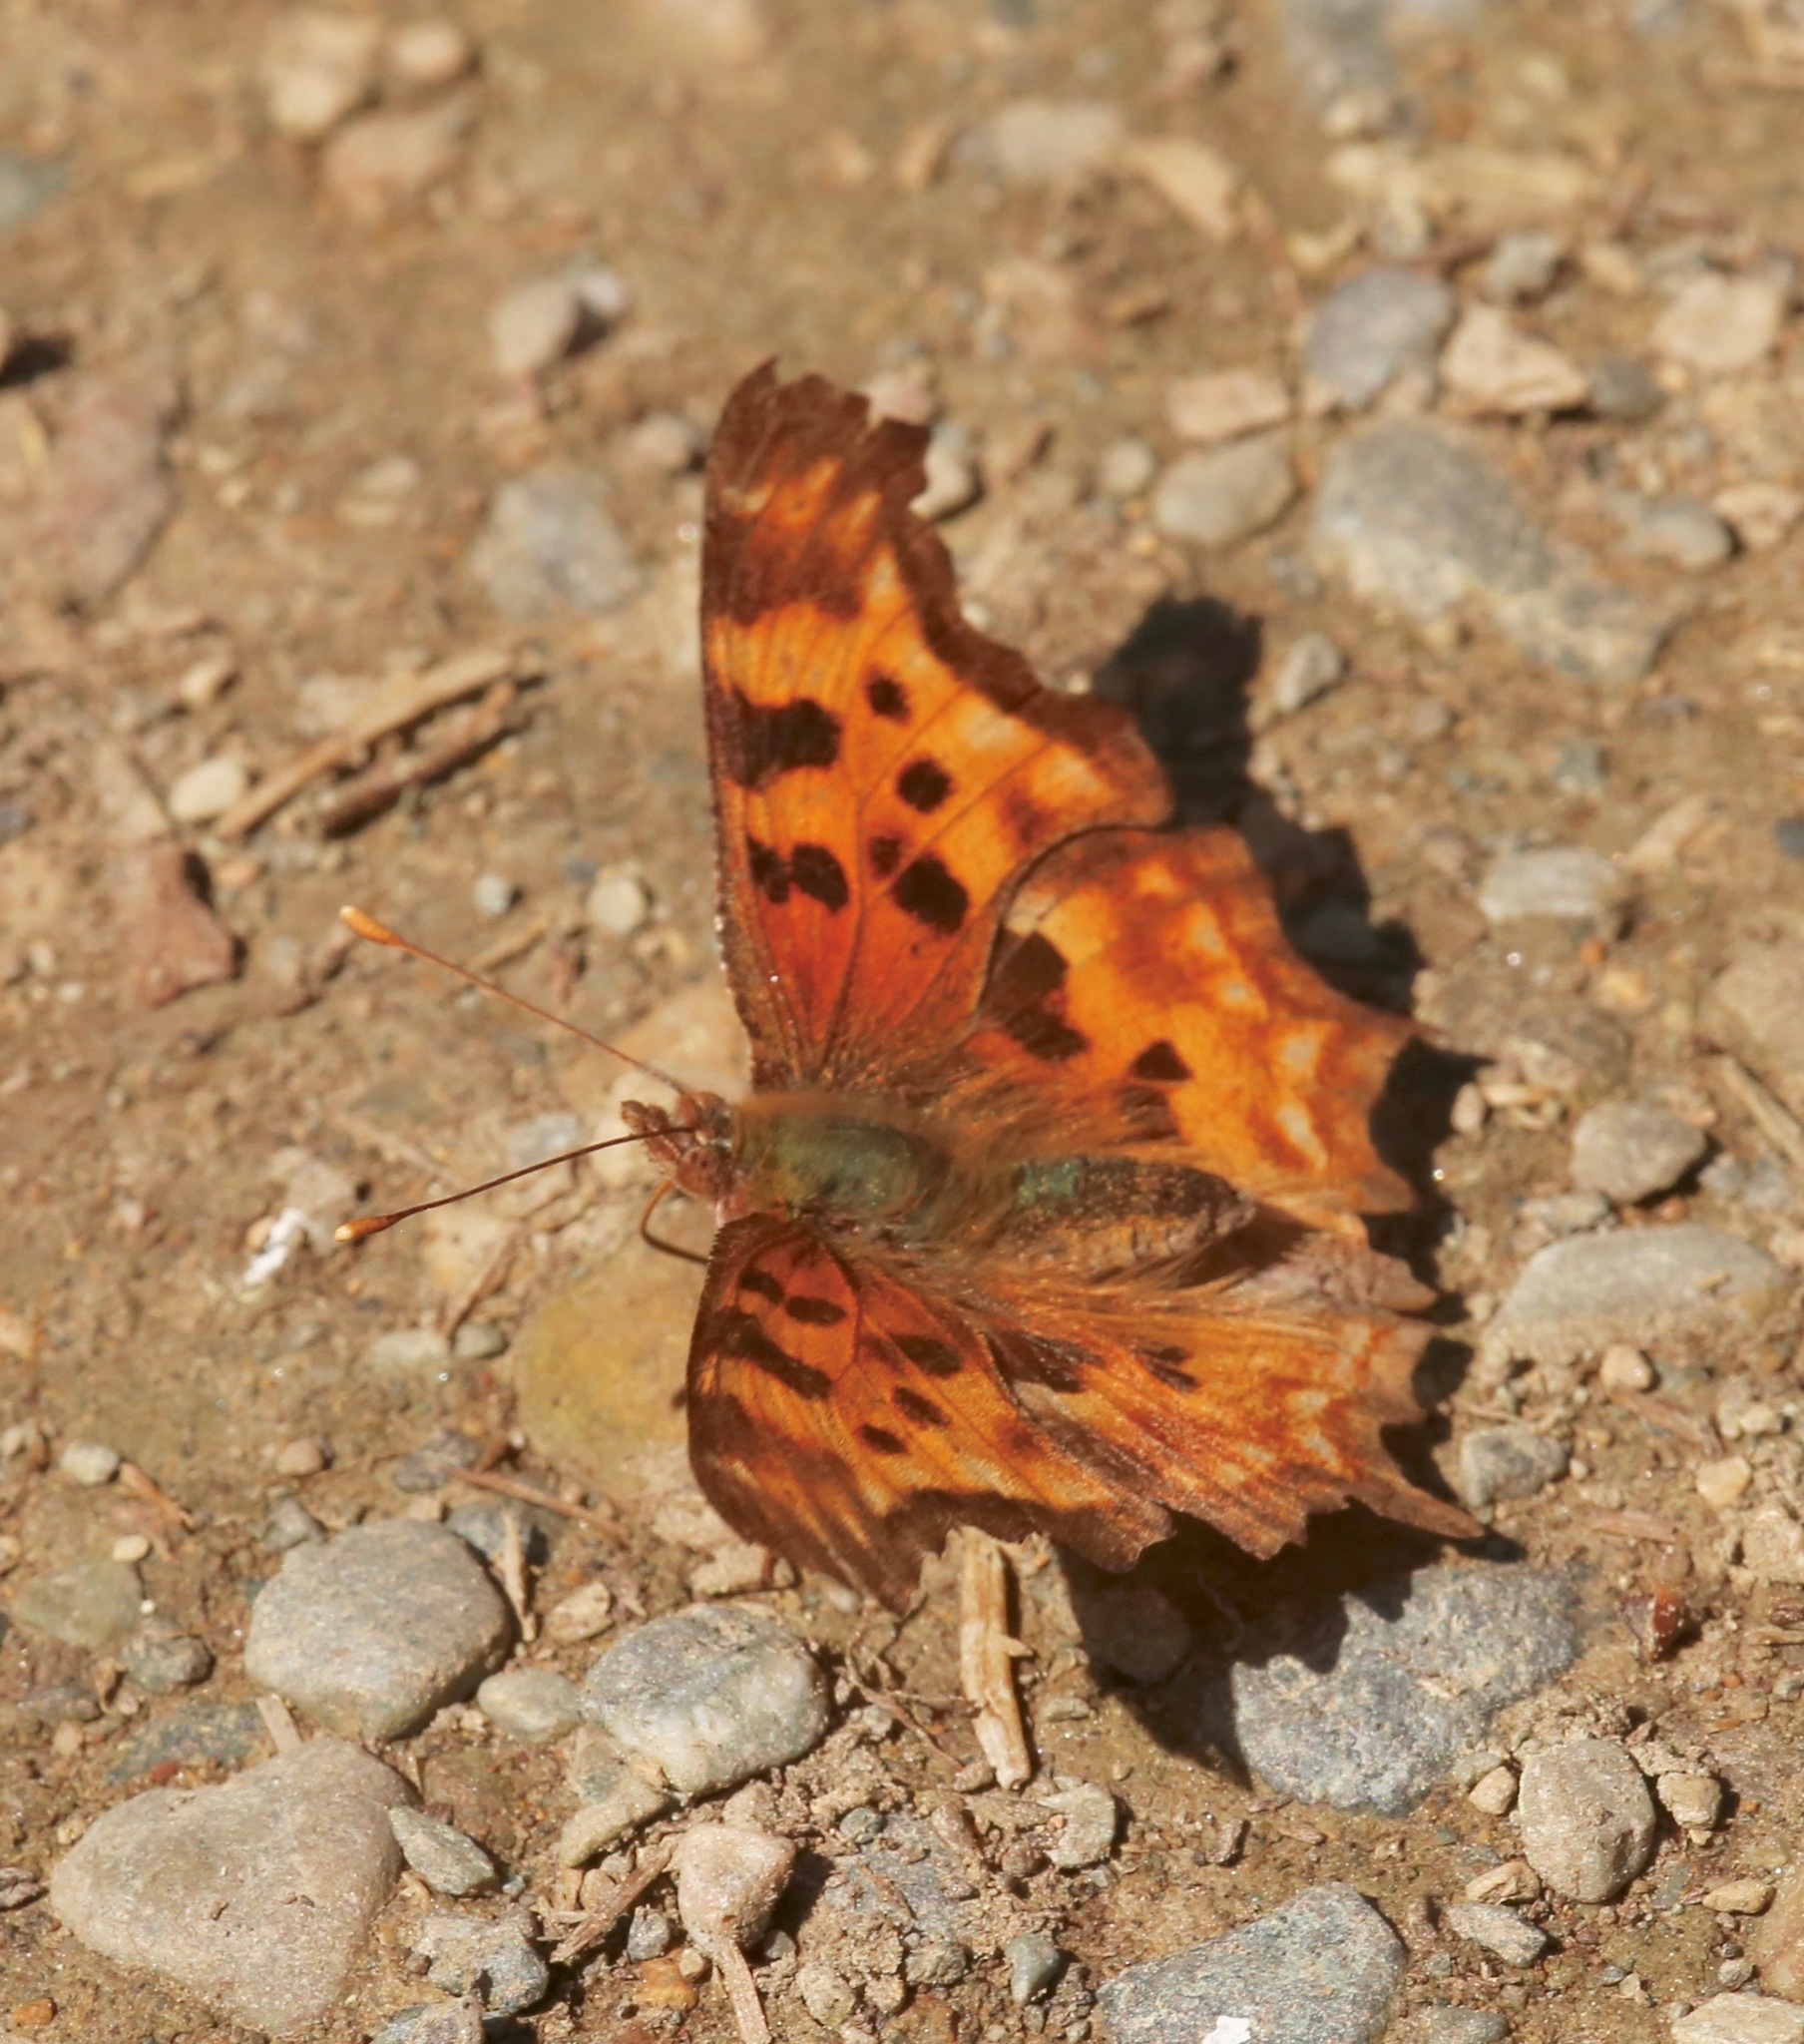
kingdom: Animalia
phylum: Arthropoda
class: Insecta
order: Lepidoptera
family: Nymphalidae
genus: Polygonia
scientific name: Polygonia satyrus
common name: Satyr angle wing
